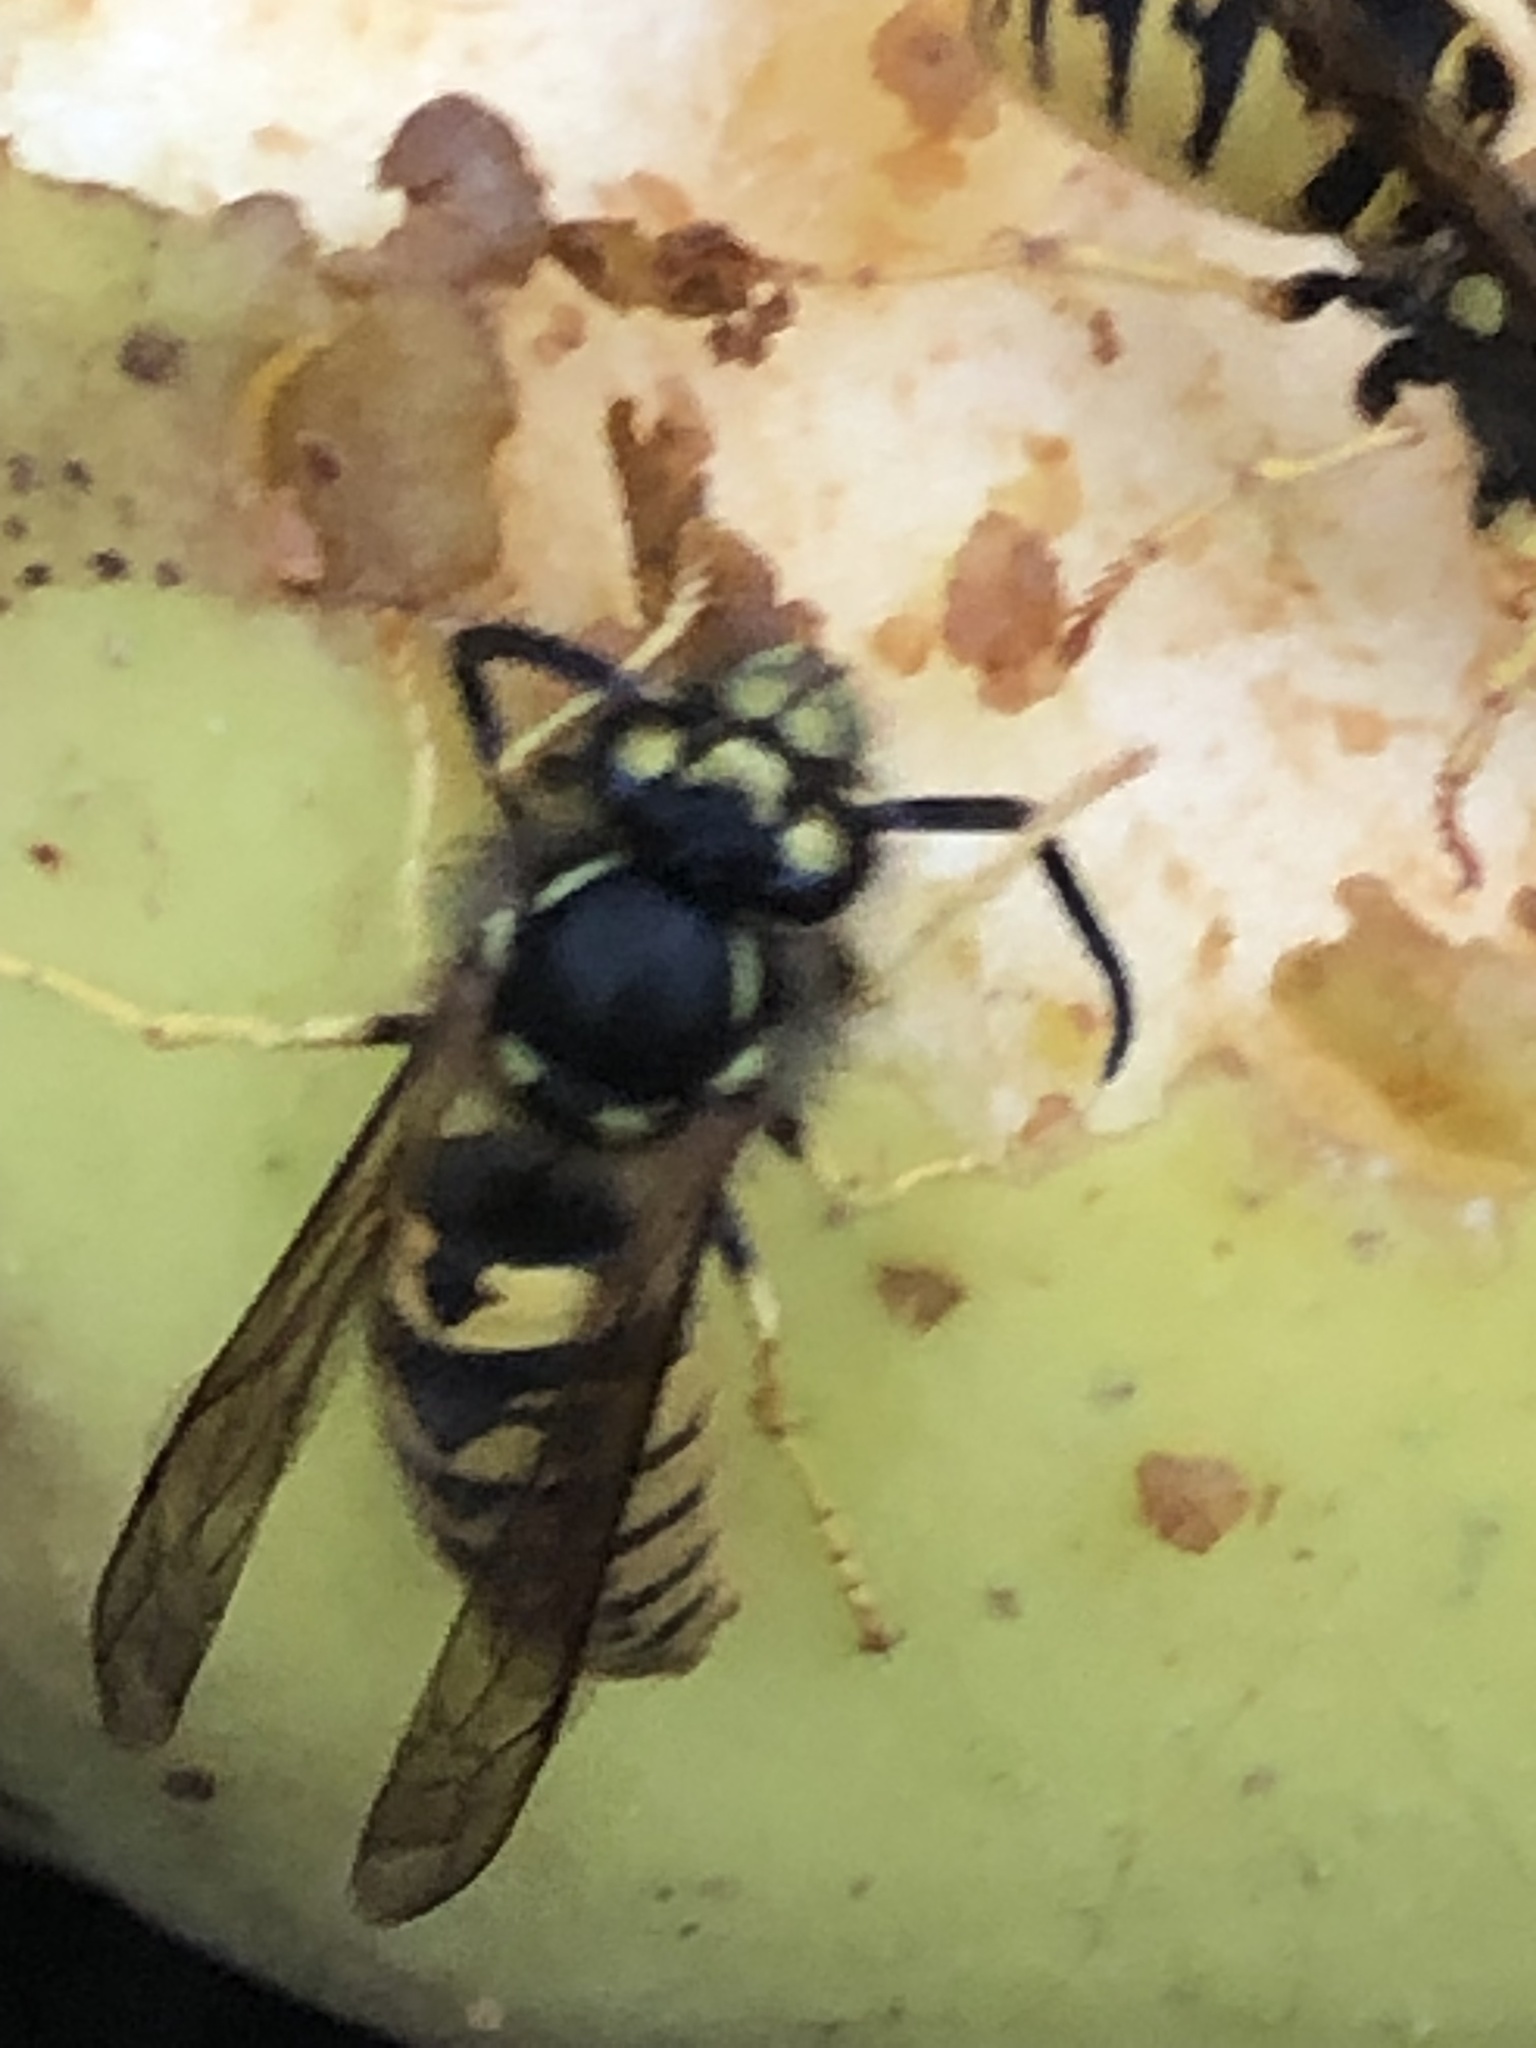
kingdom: Animalia
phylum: Arthropoda
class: Insecta
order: Hymenoptera
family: Vespidae
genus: Vespula
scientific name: Vespula germanica
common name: German wasp
